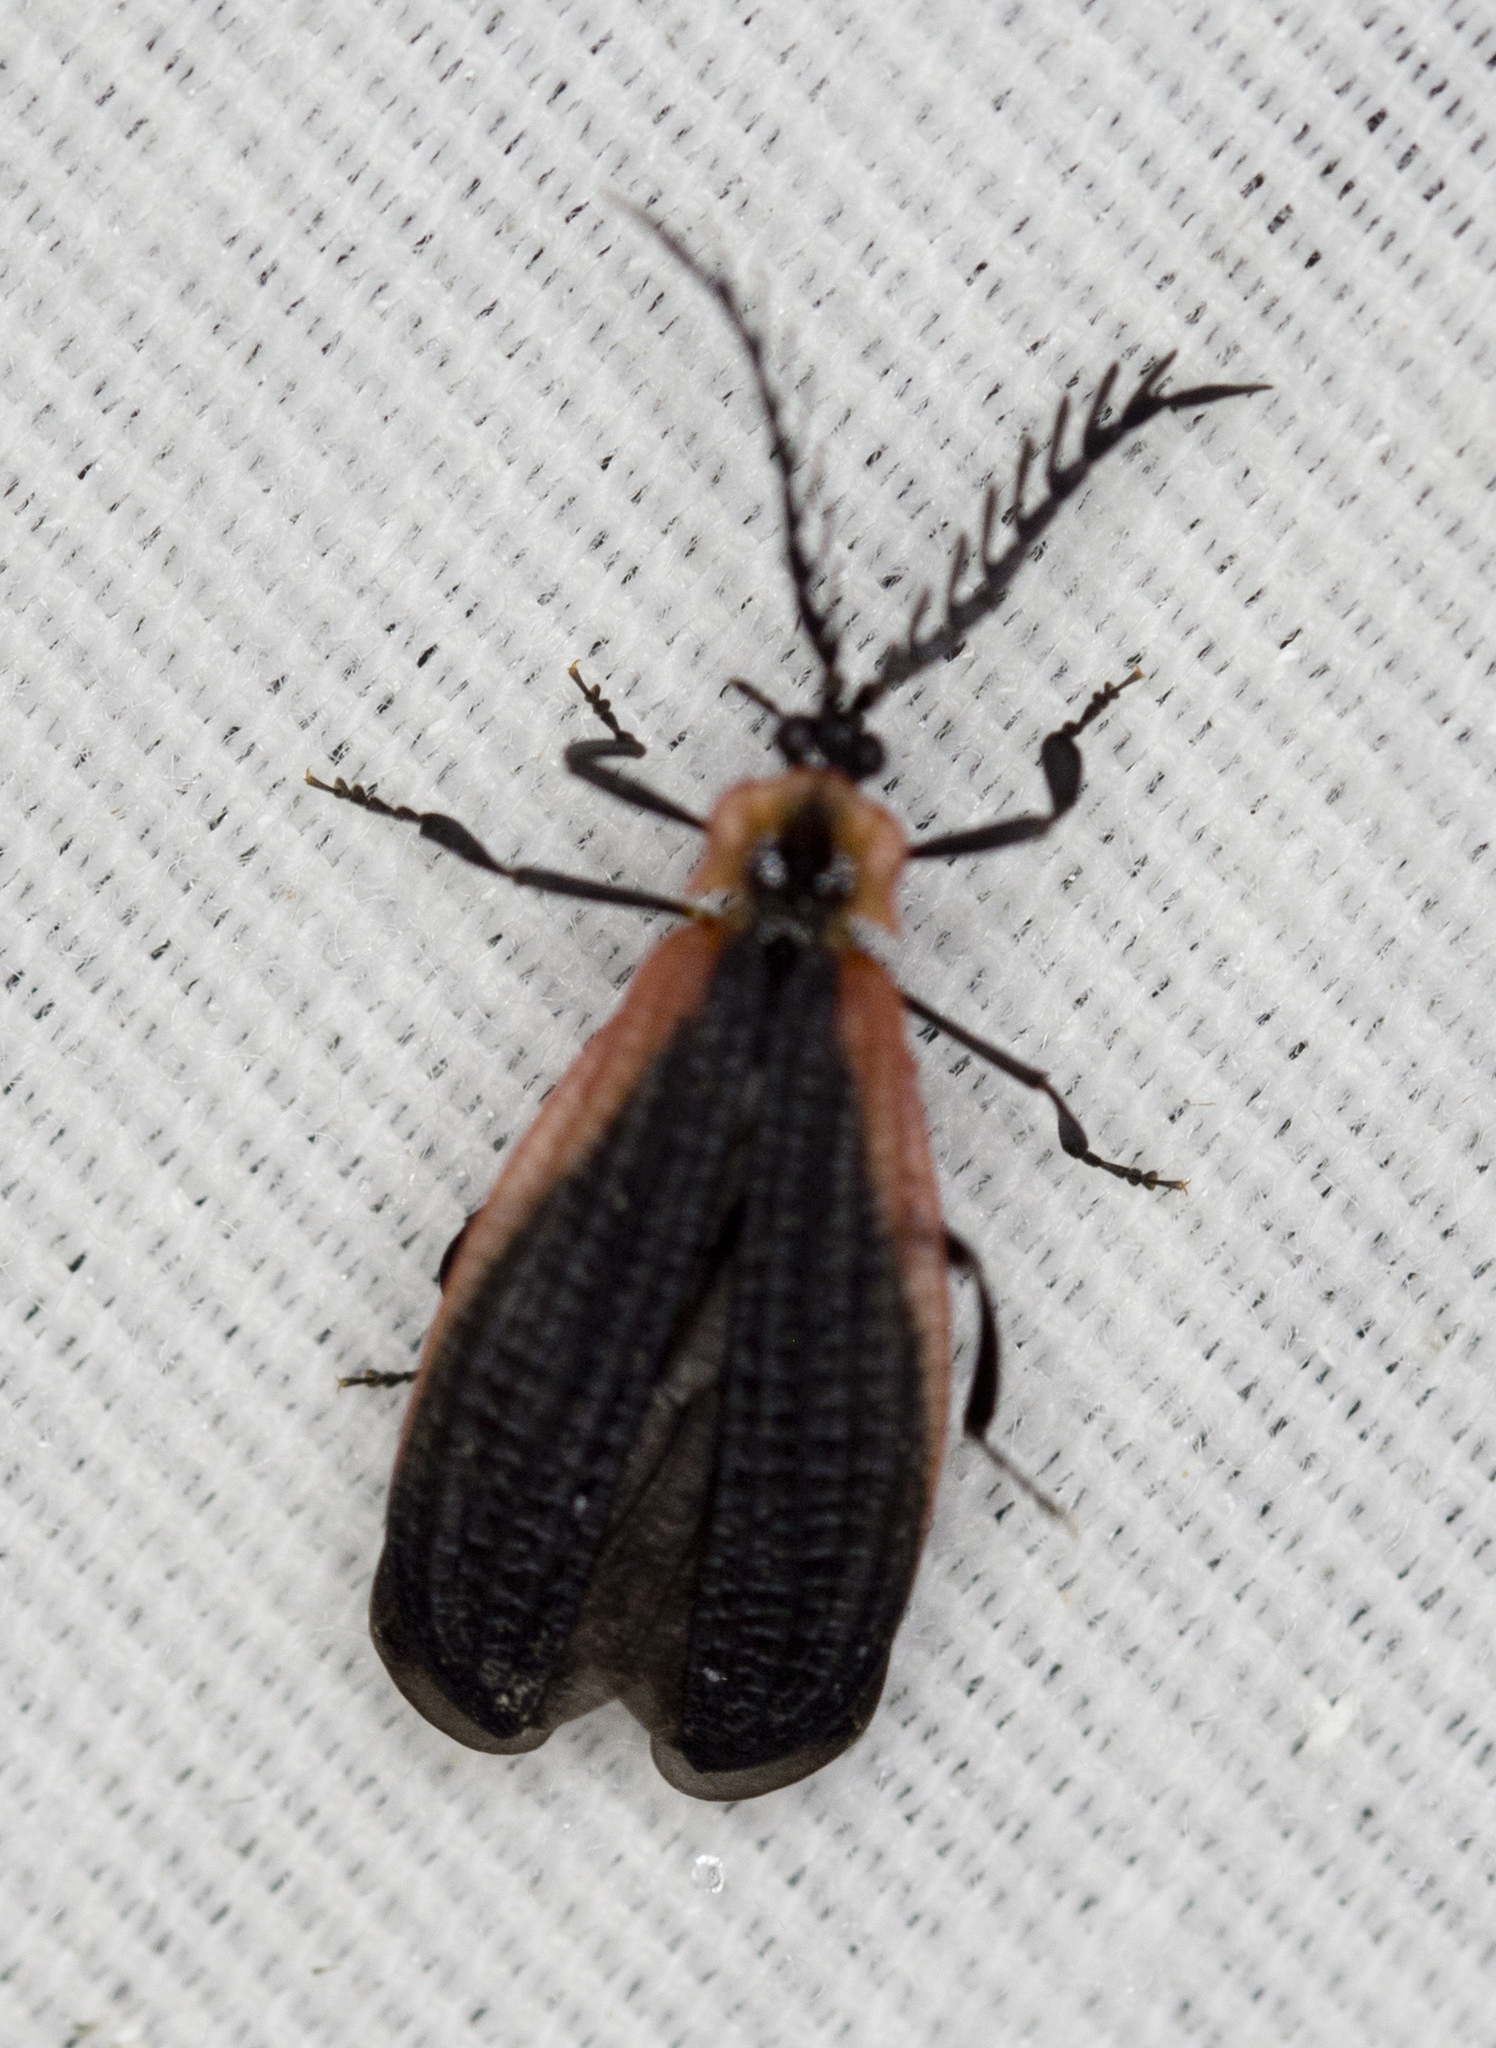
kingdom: Animalia
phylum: Arthropoda
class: Insecta
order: Coleoptera
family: Lycidae
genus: Caenia
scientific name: Caenia amplicornis
